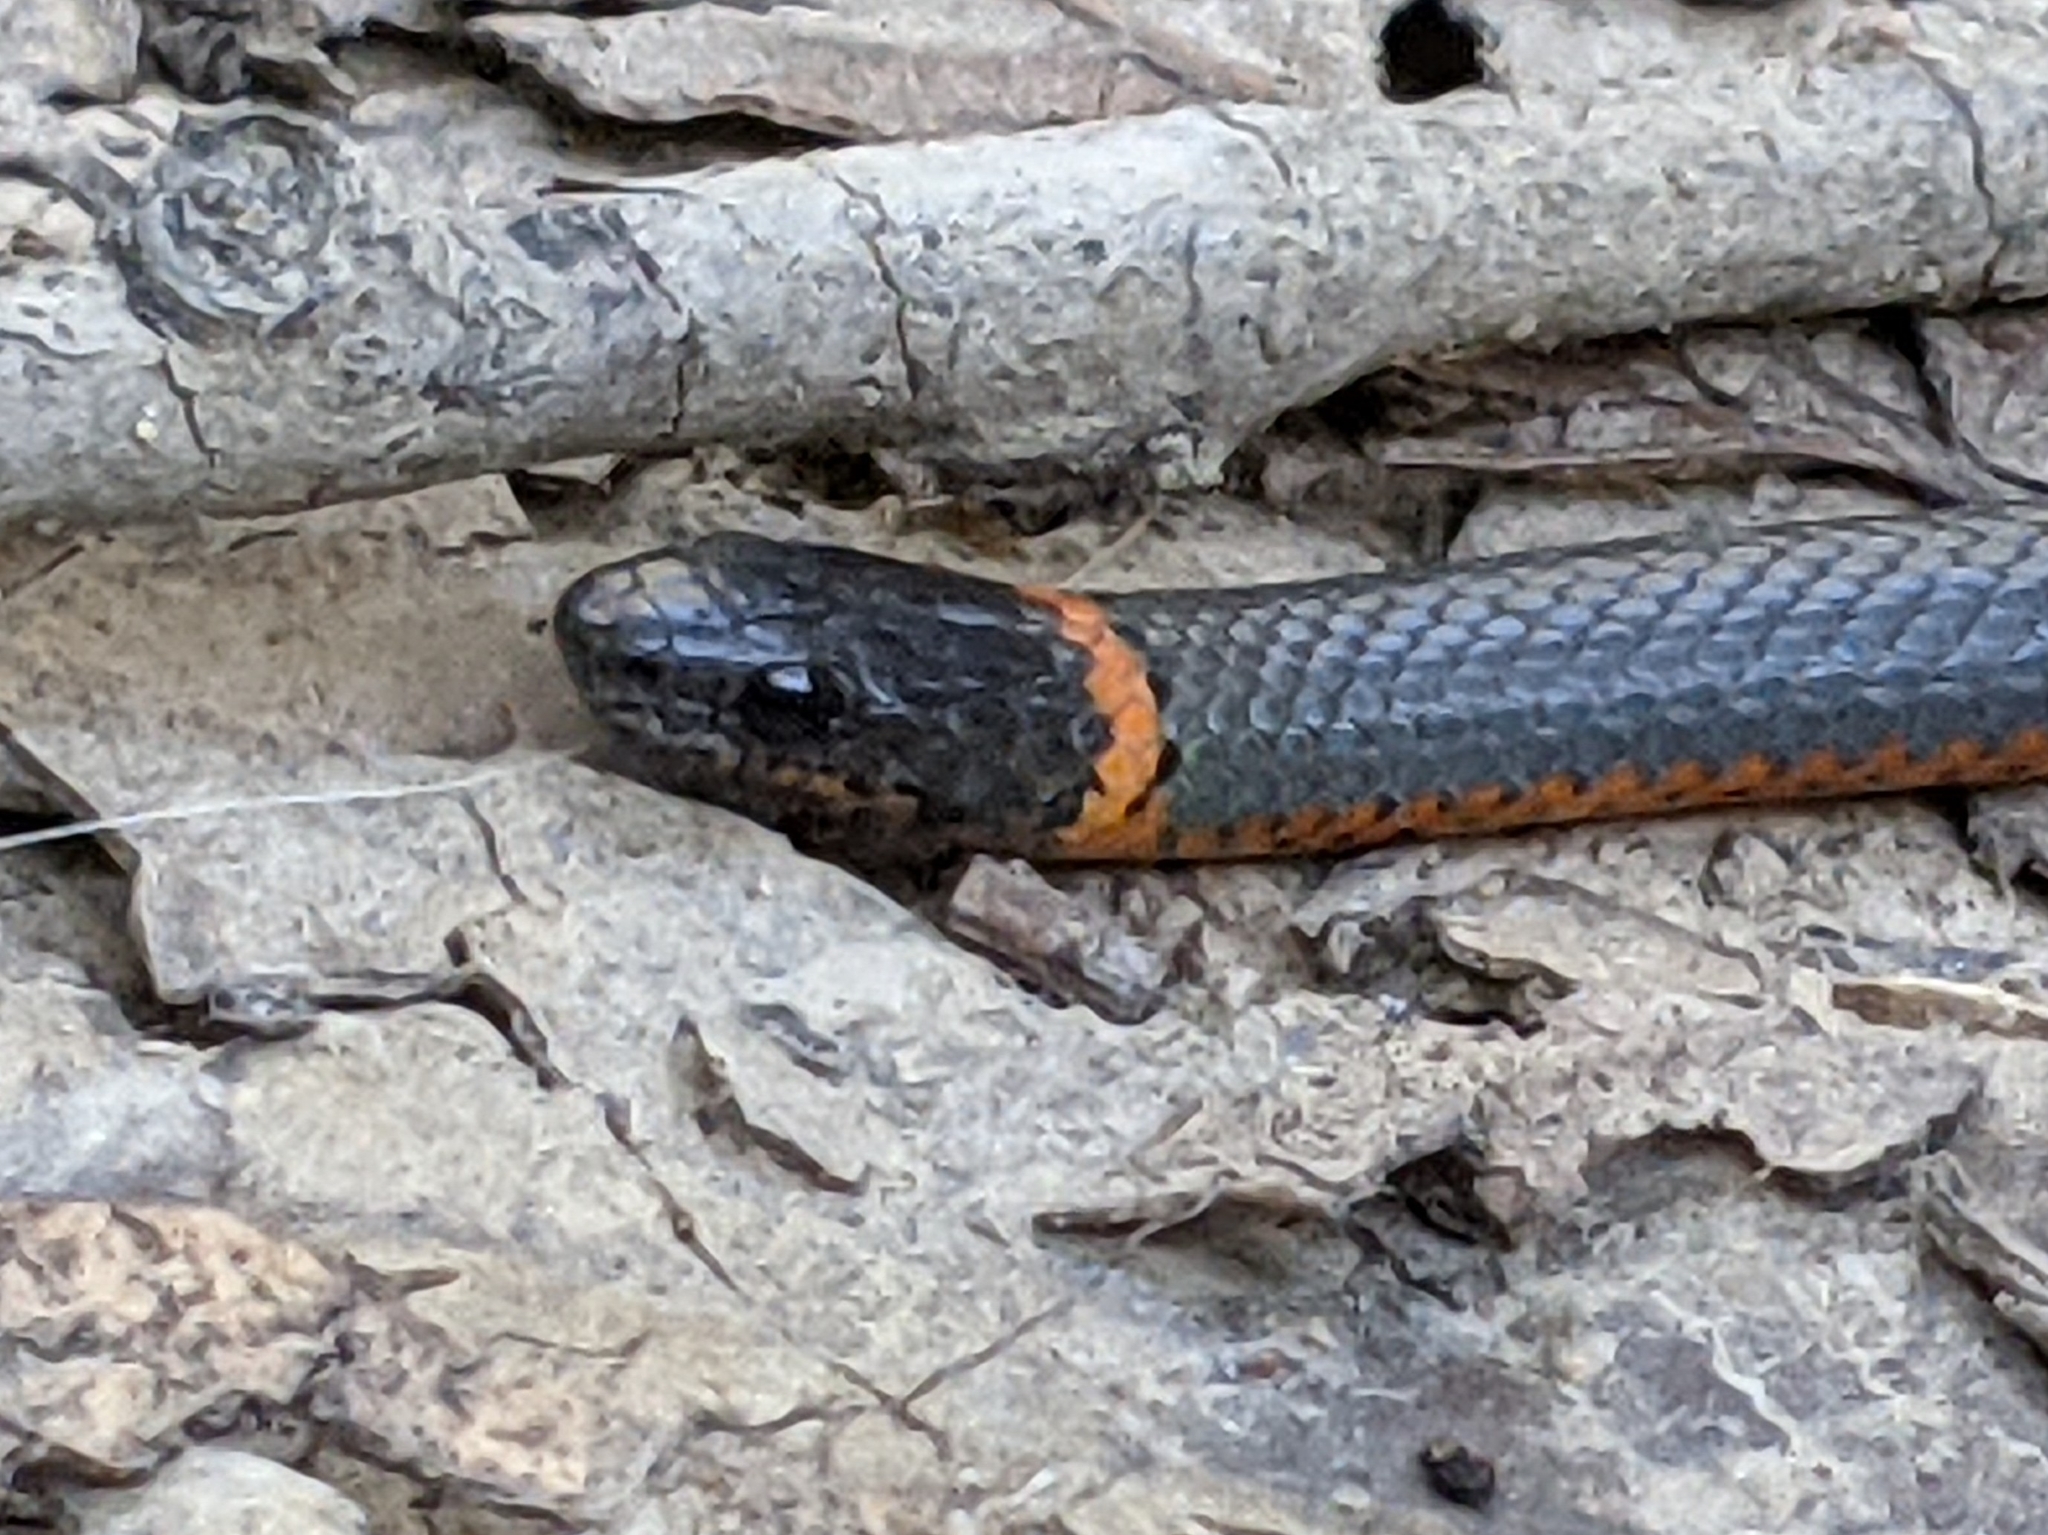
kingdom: Animalia
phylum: Chordata
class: Squamata
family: Colubridae
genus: Diadophis
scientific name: Diadophis punctatus
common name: Ringneck snake
